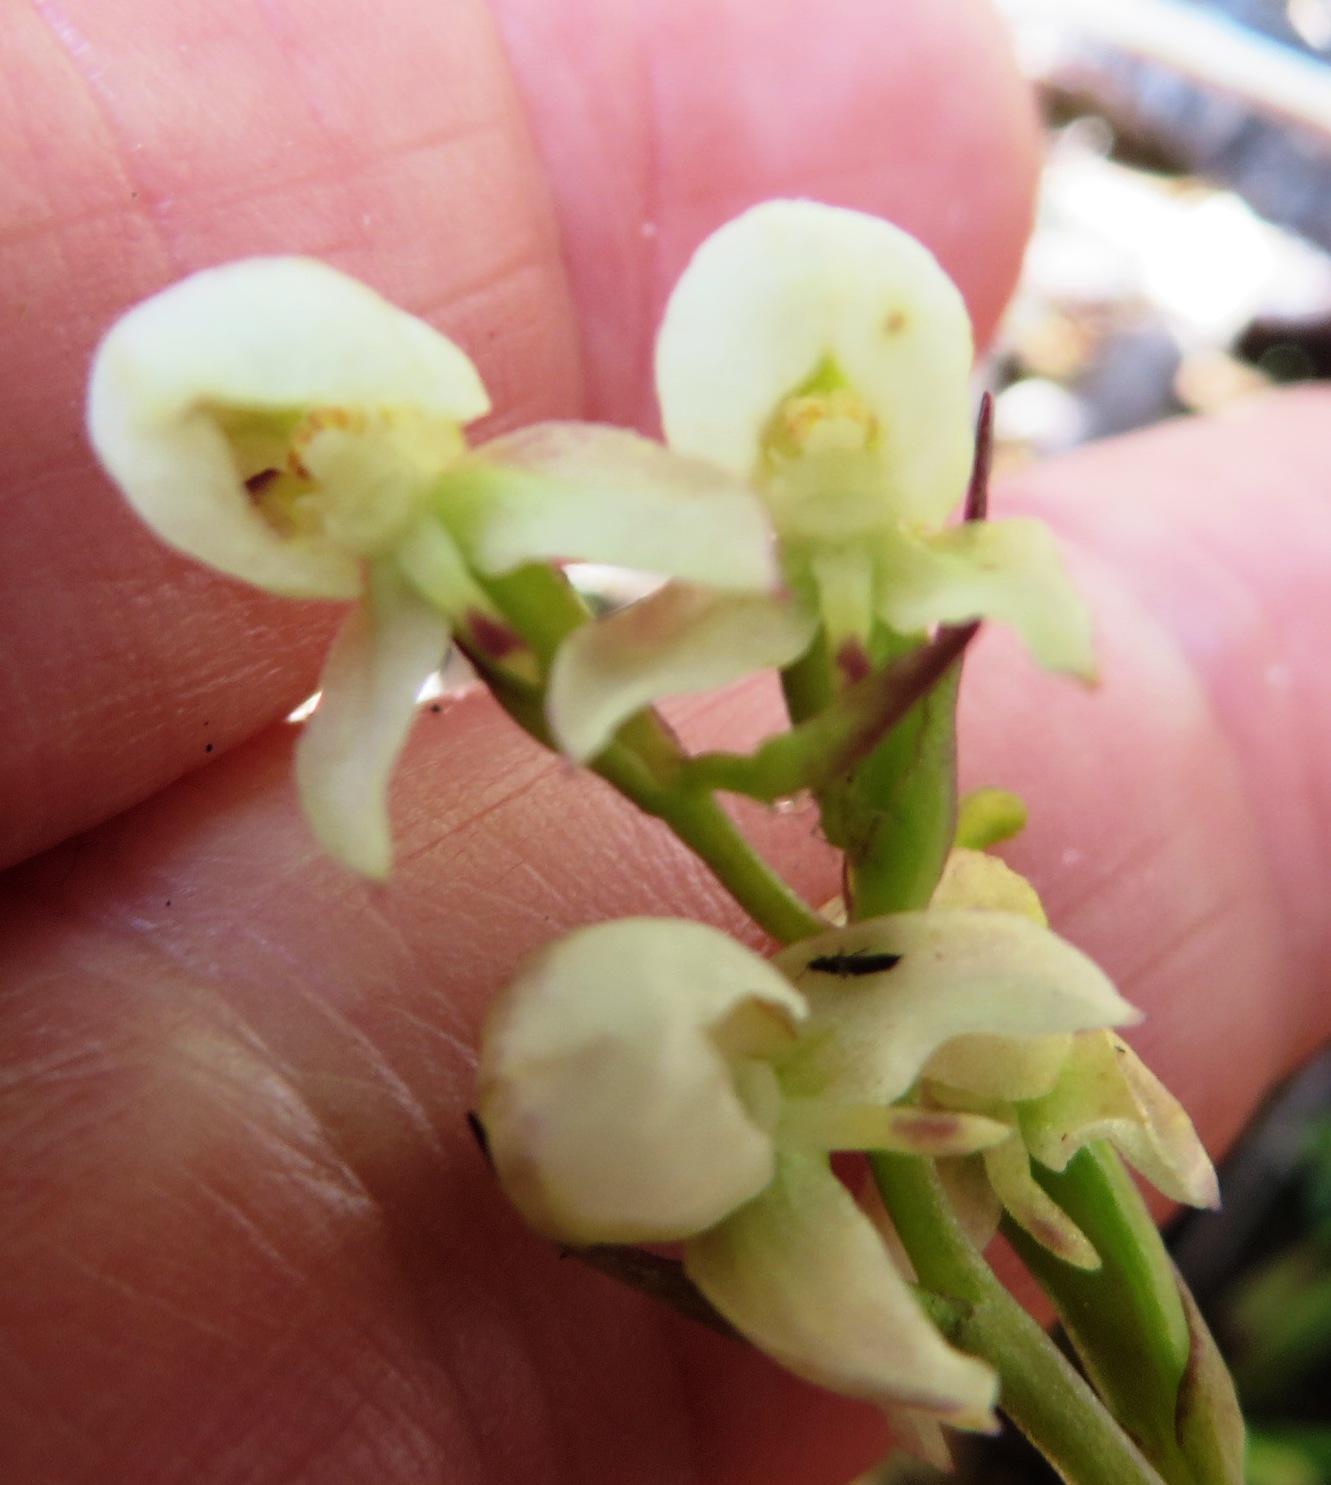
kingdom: Plantae
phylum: Tracheophyta
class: Liliopsida
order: Asparagales
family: Orchidaceae
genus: Disa
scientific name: Disa uncinata
